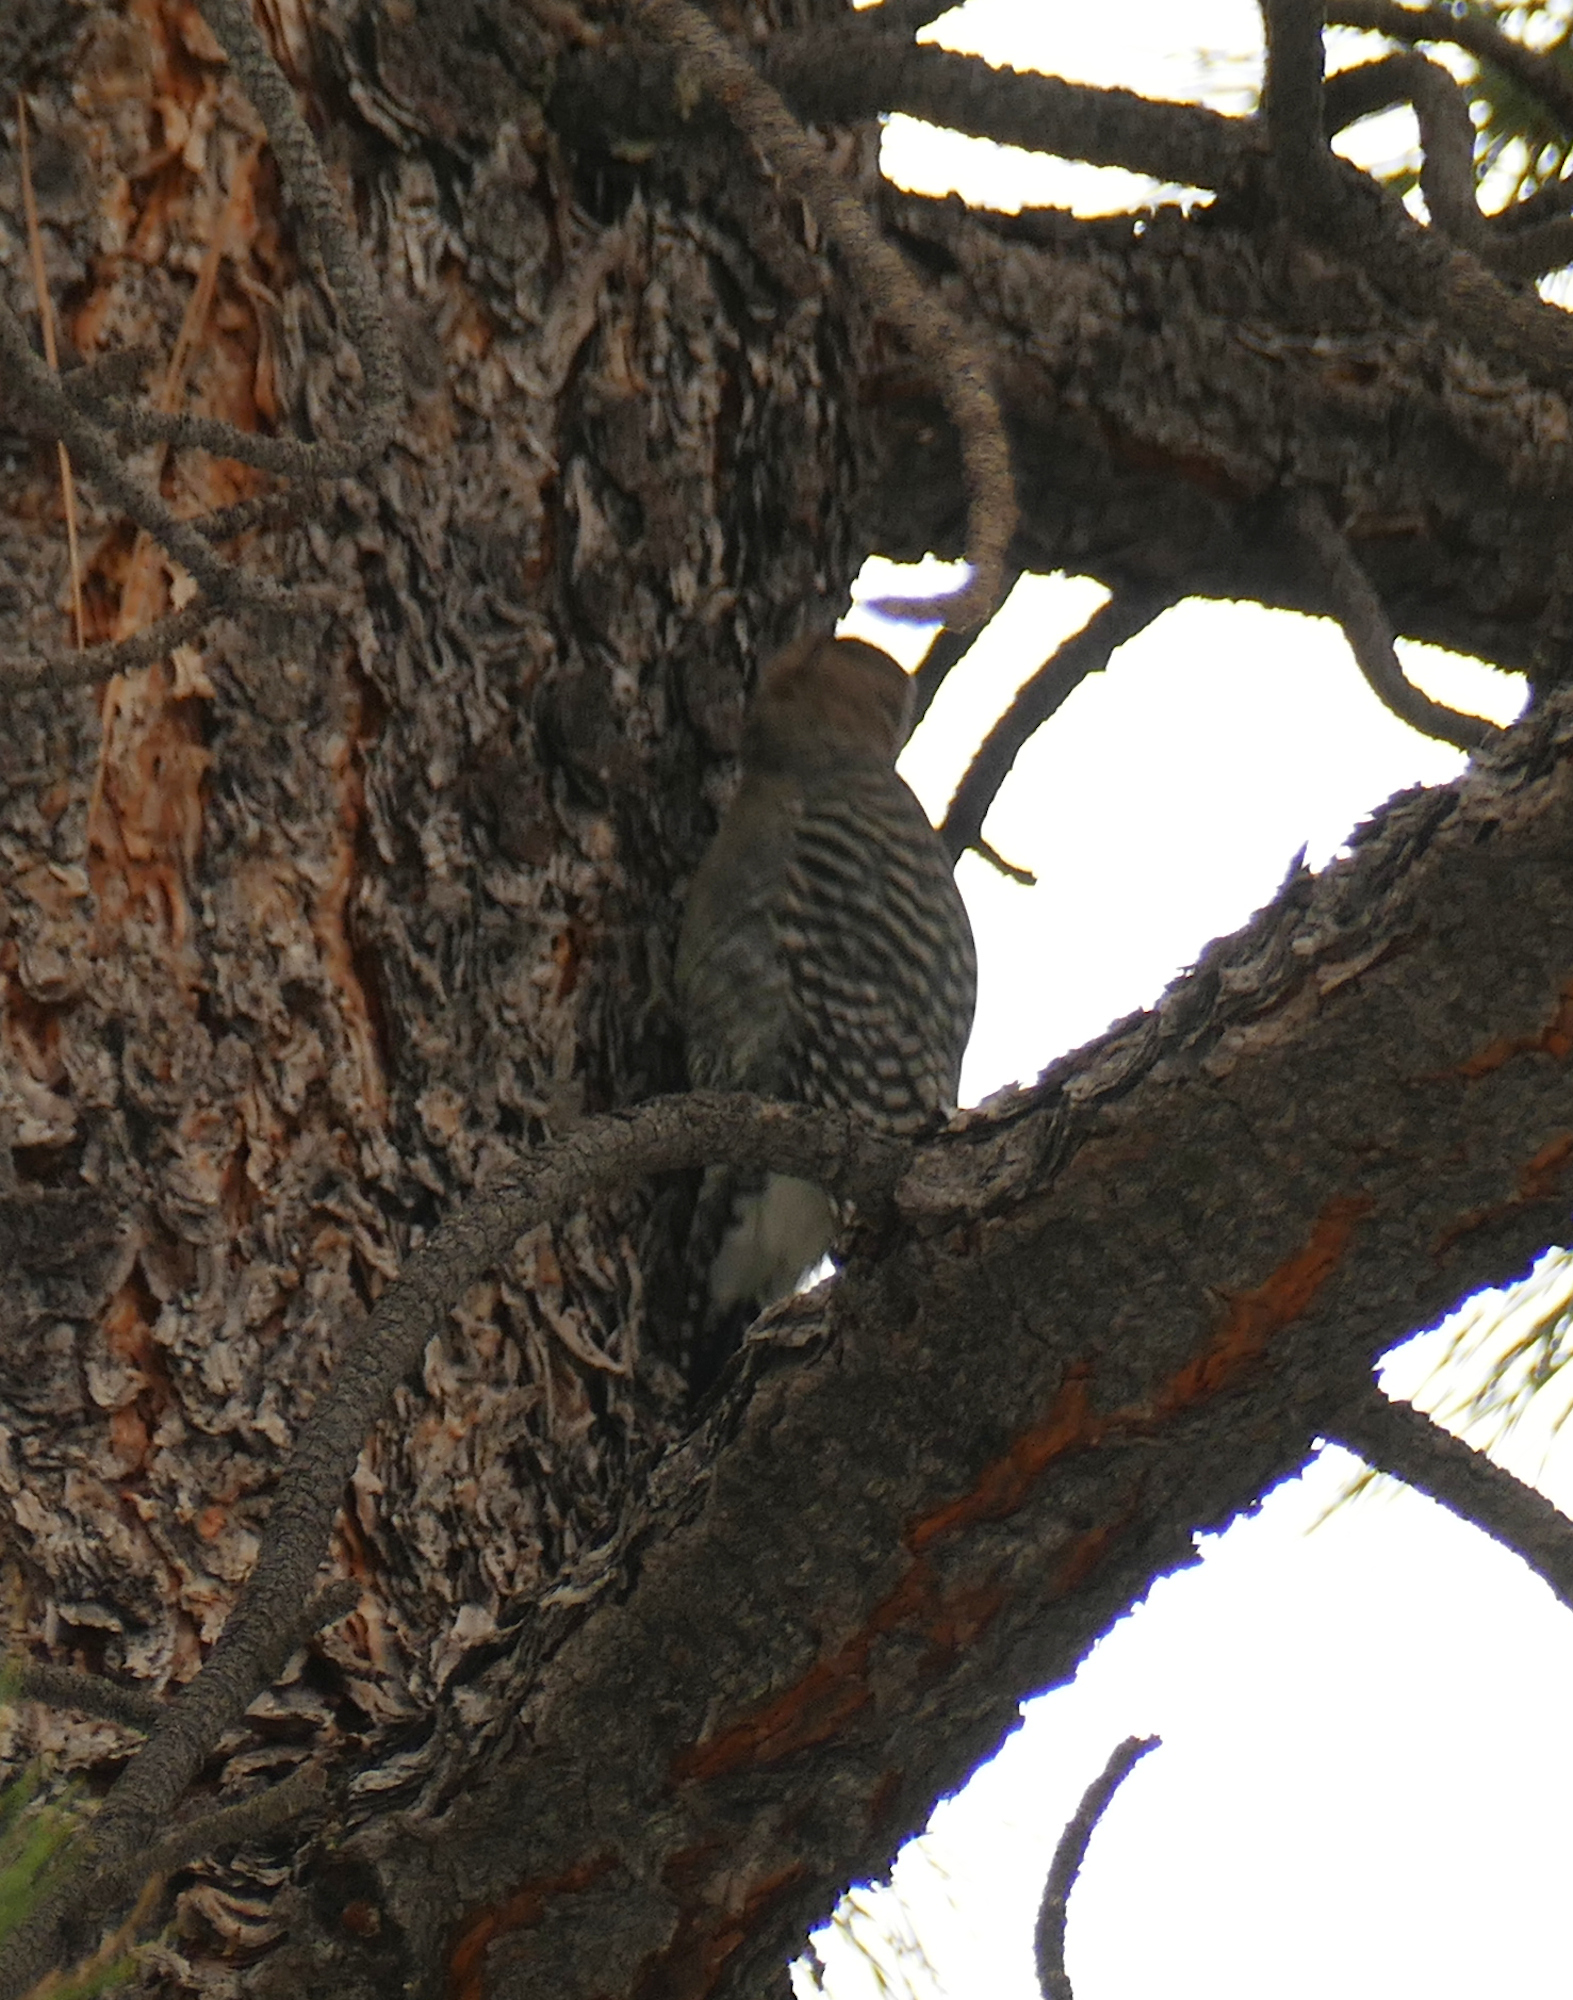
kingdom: Animalia
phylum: Chordata
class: Aves
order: Piciformes
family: Picidae
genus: Sphyrapicus
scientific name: Sphyrapicus thyroideus
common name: Williamson's sapsucker
